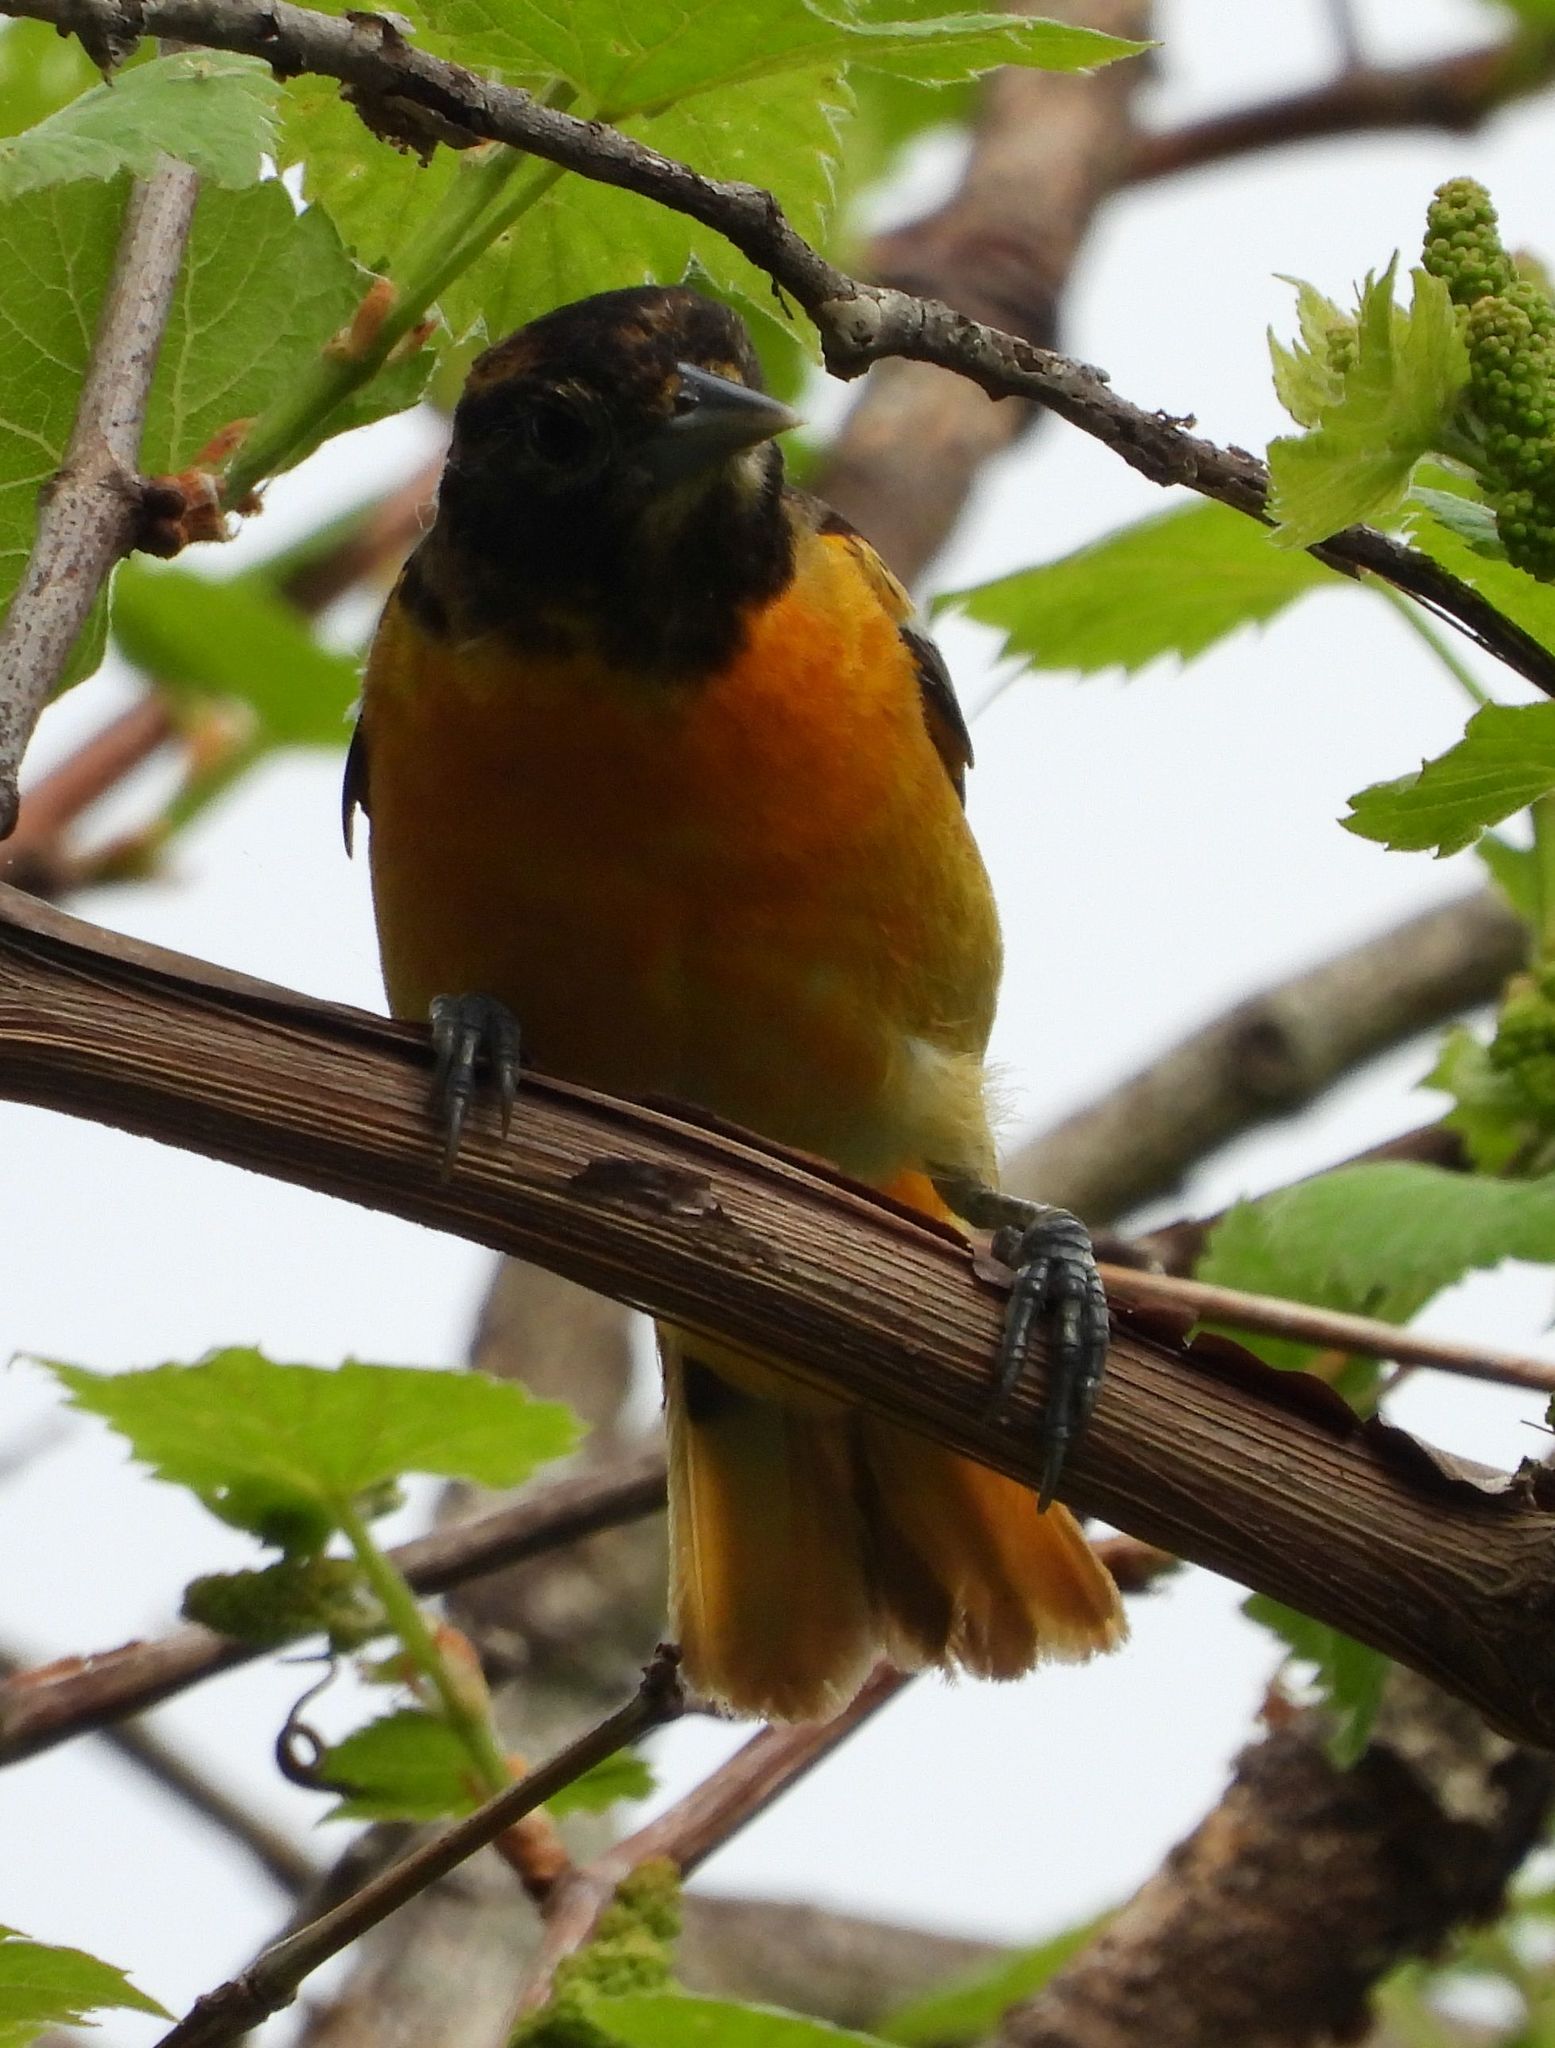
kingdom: Animalia
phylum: Chordata
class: Aves
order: Passeriformes
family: Icteridae
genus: Icterus
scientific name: Icterus galbula
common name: Baltimore oriole
